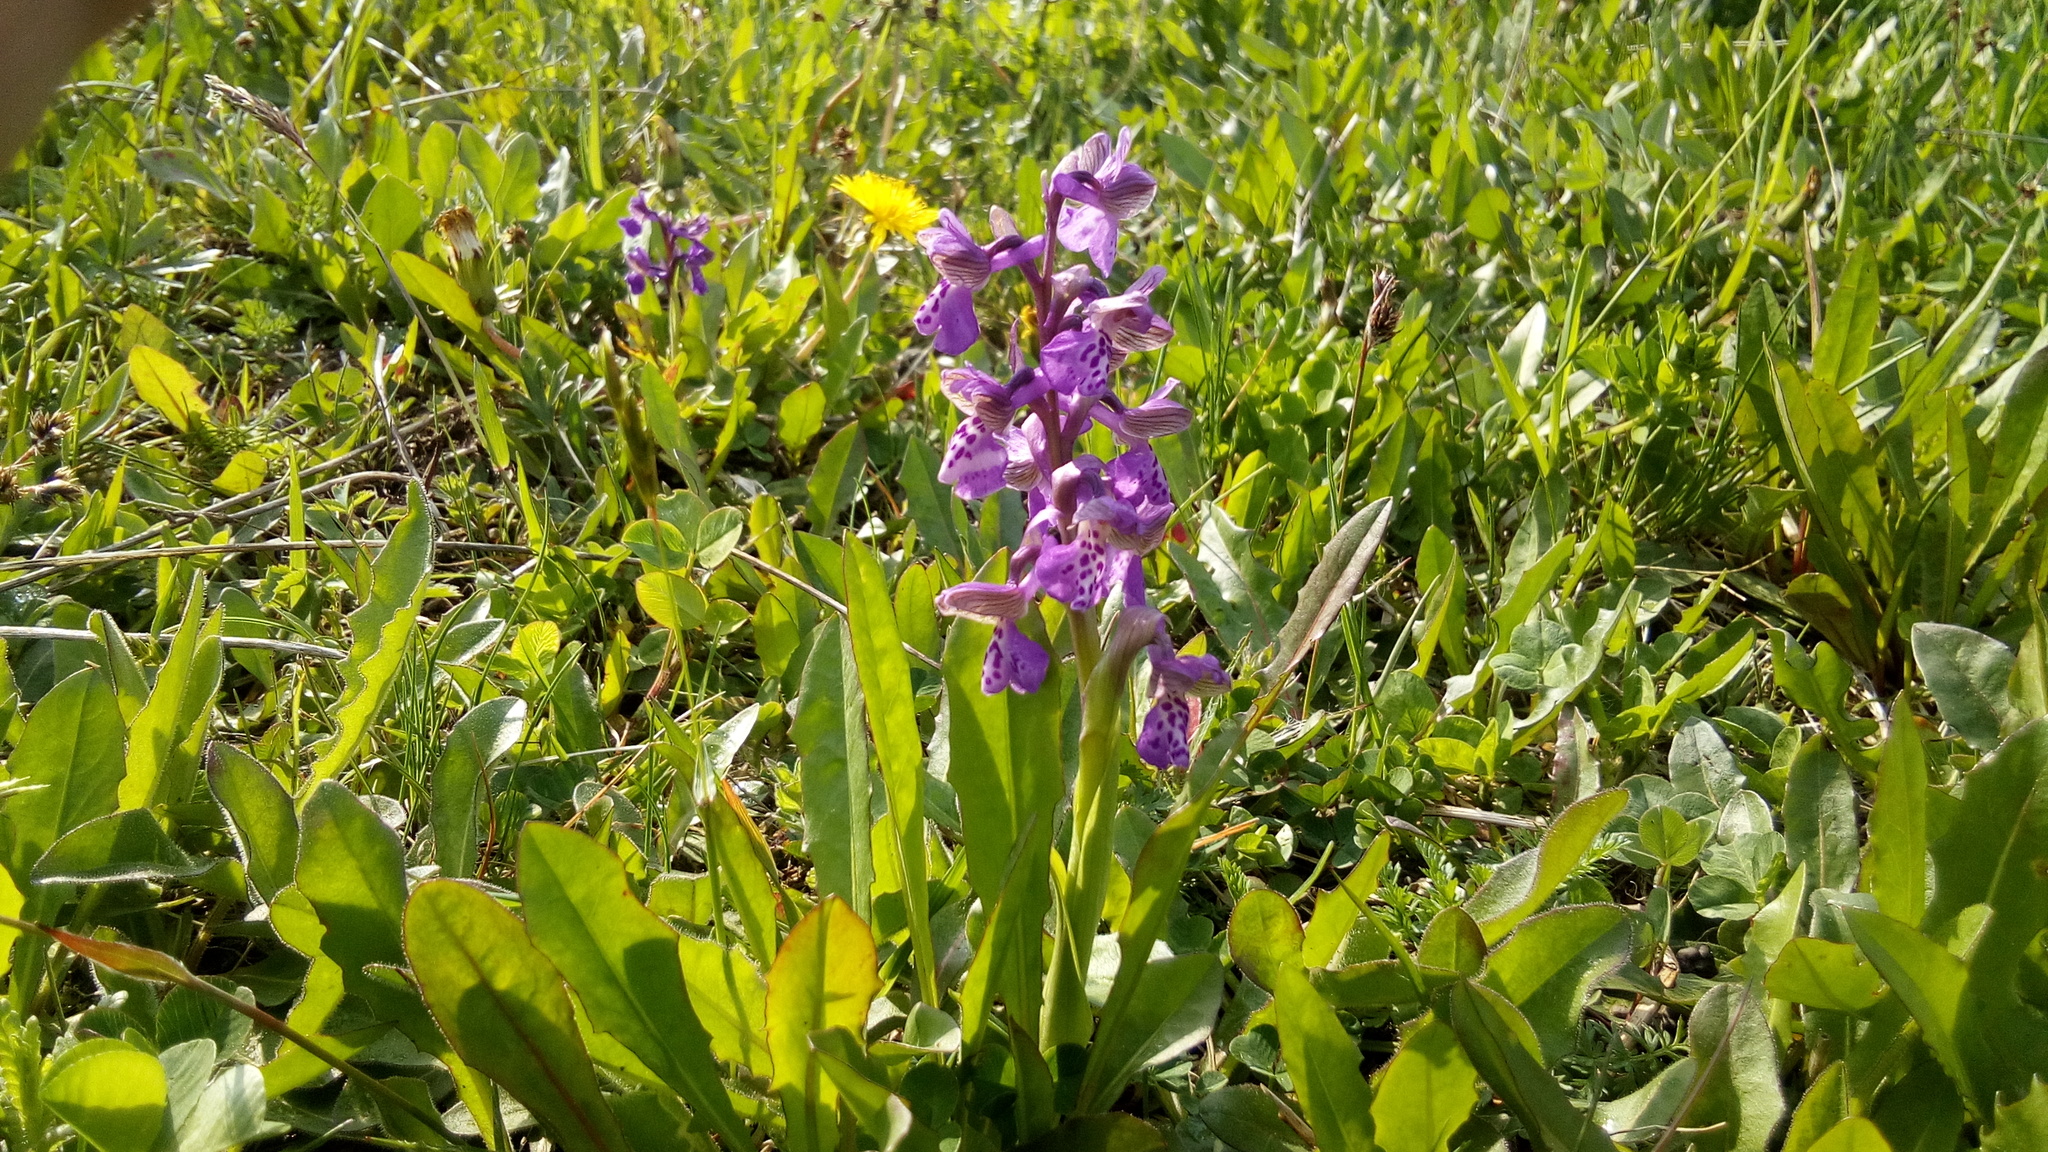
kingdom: Plantae
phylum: Tracheophyta
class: Liliopsida
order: Asparagales
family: Orchidaceae
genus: Anacamptis
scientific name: Anacamptis morio
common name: Green-winged orchid
